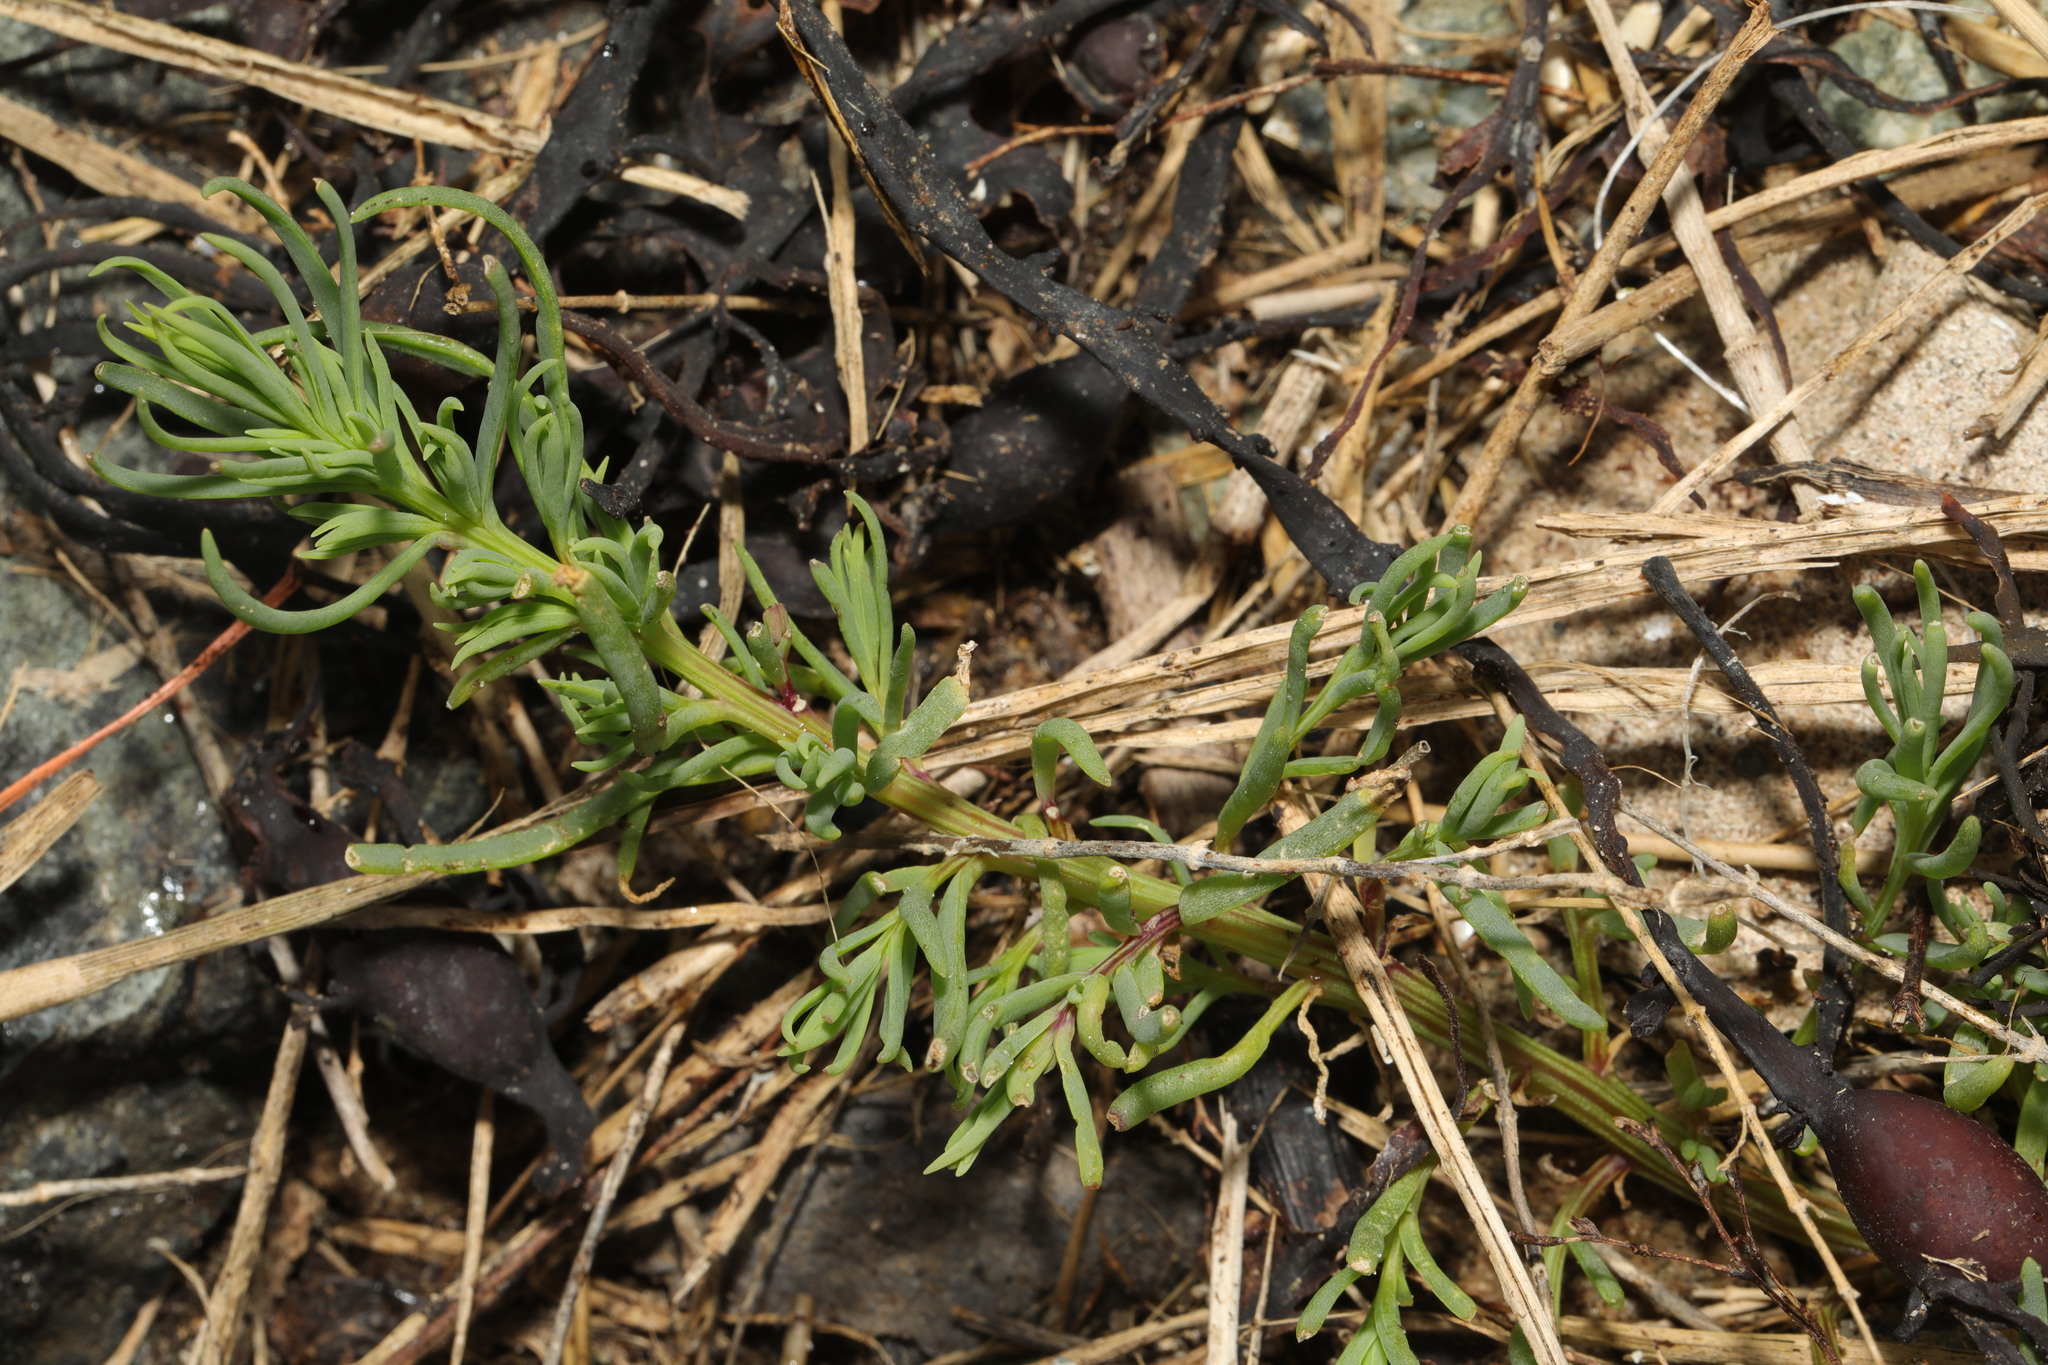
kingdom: Plantae
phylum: Tracheophyta
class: Magnoliopsida
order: Caryophyllales
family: Amaranthaceae
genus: Suaeda
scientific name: Suaeda maritima
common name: Annual sea-blite
